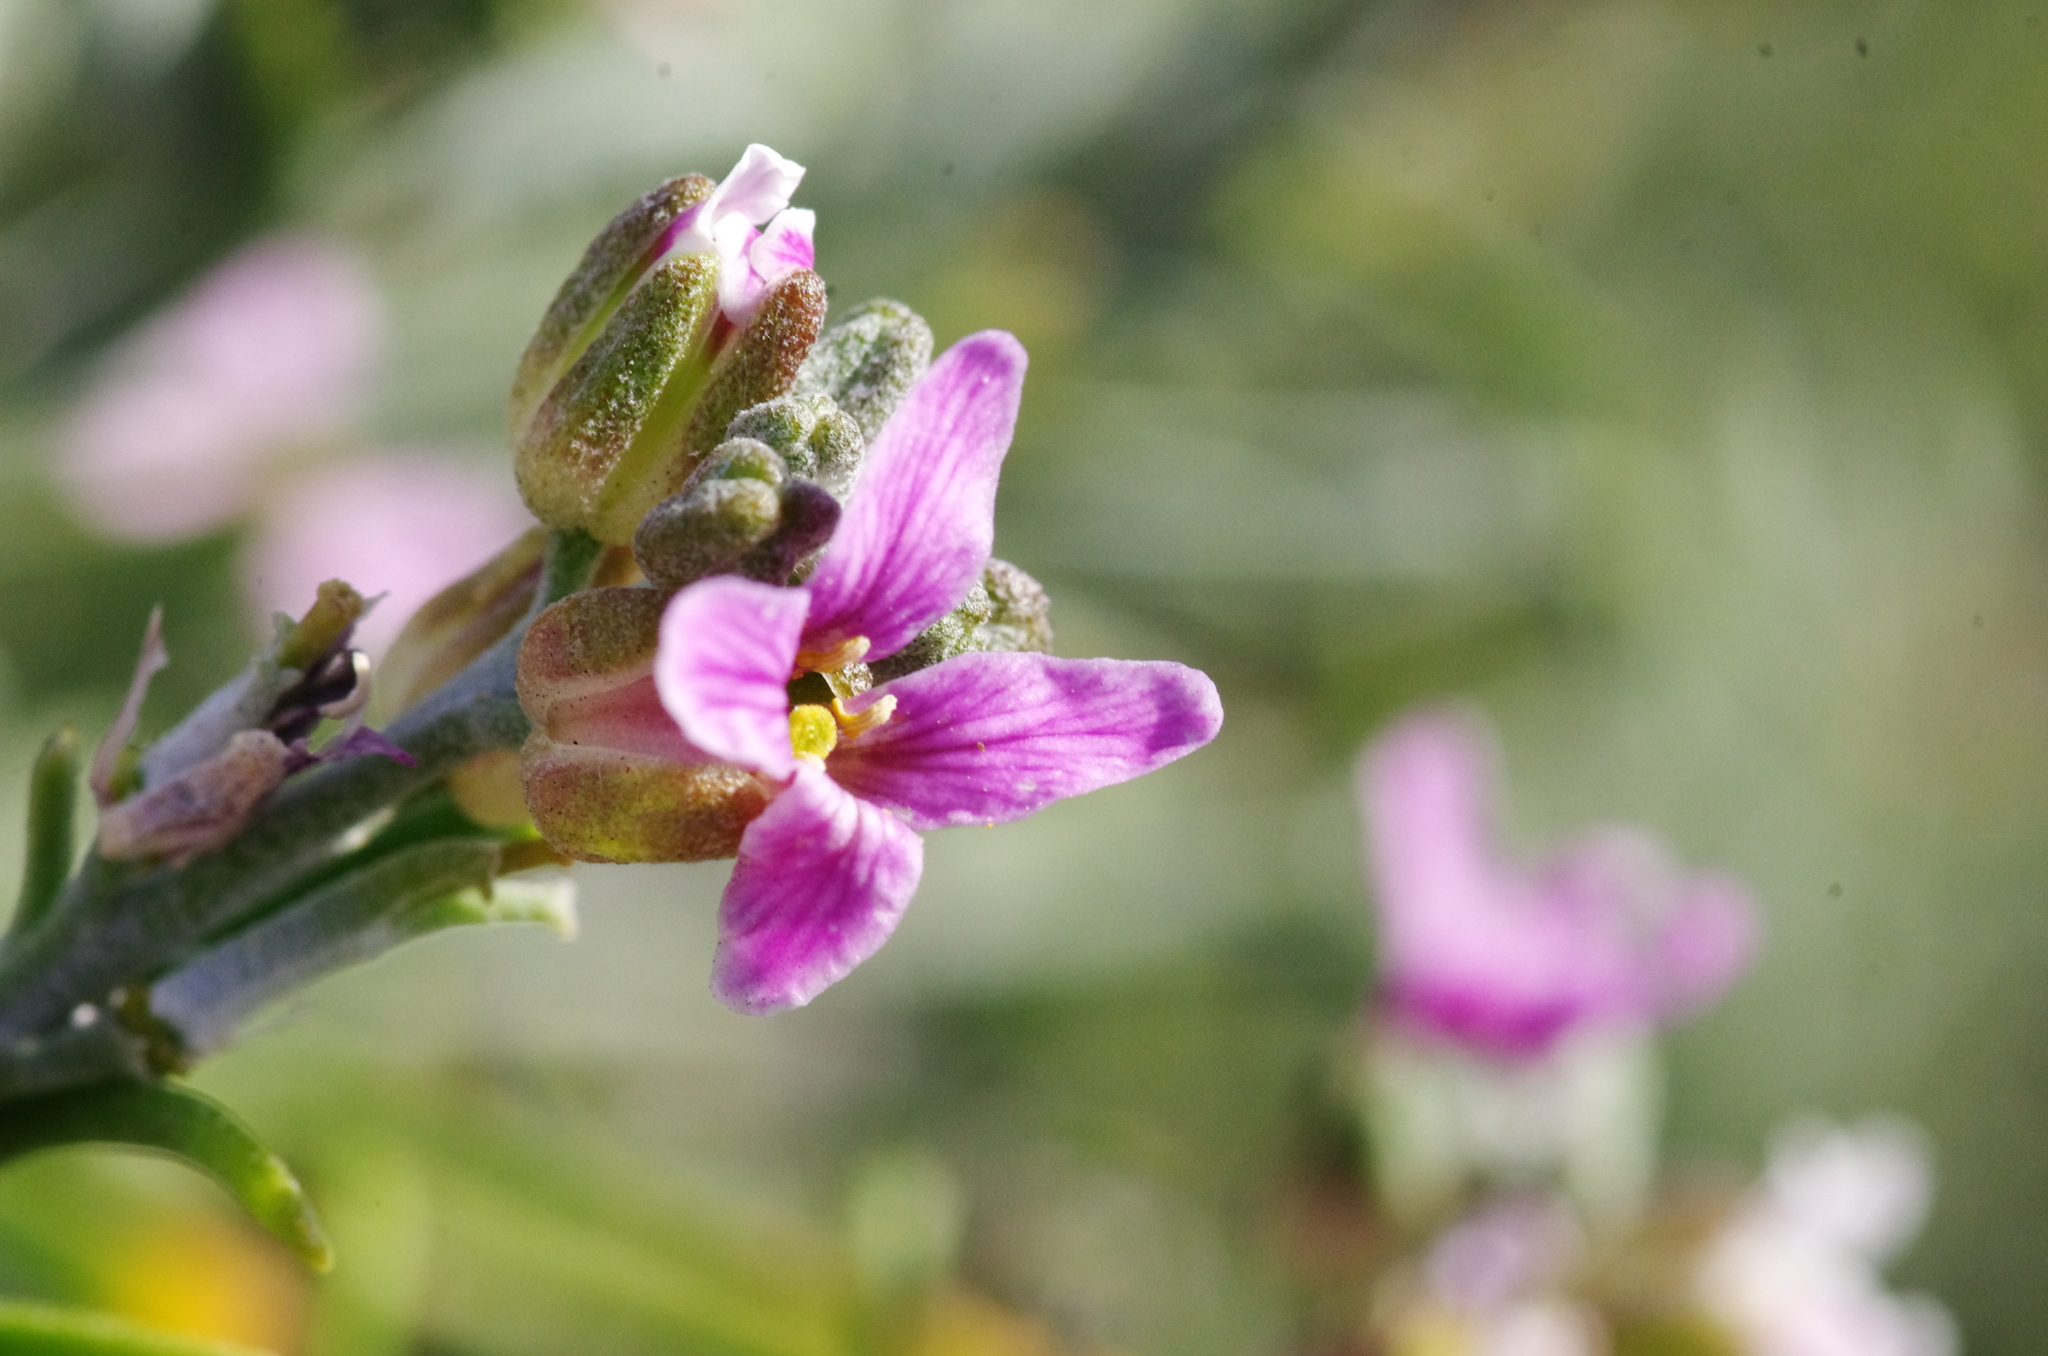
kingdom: Plantae
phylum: Tracheophyta
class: Magnoliopsida
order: Brassicales
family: Brassicaceae
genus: Parolinia
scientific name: Parolinia intermedia
